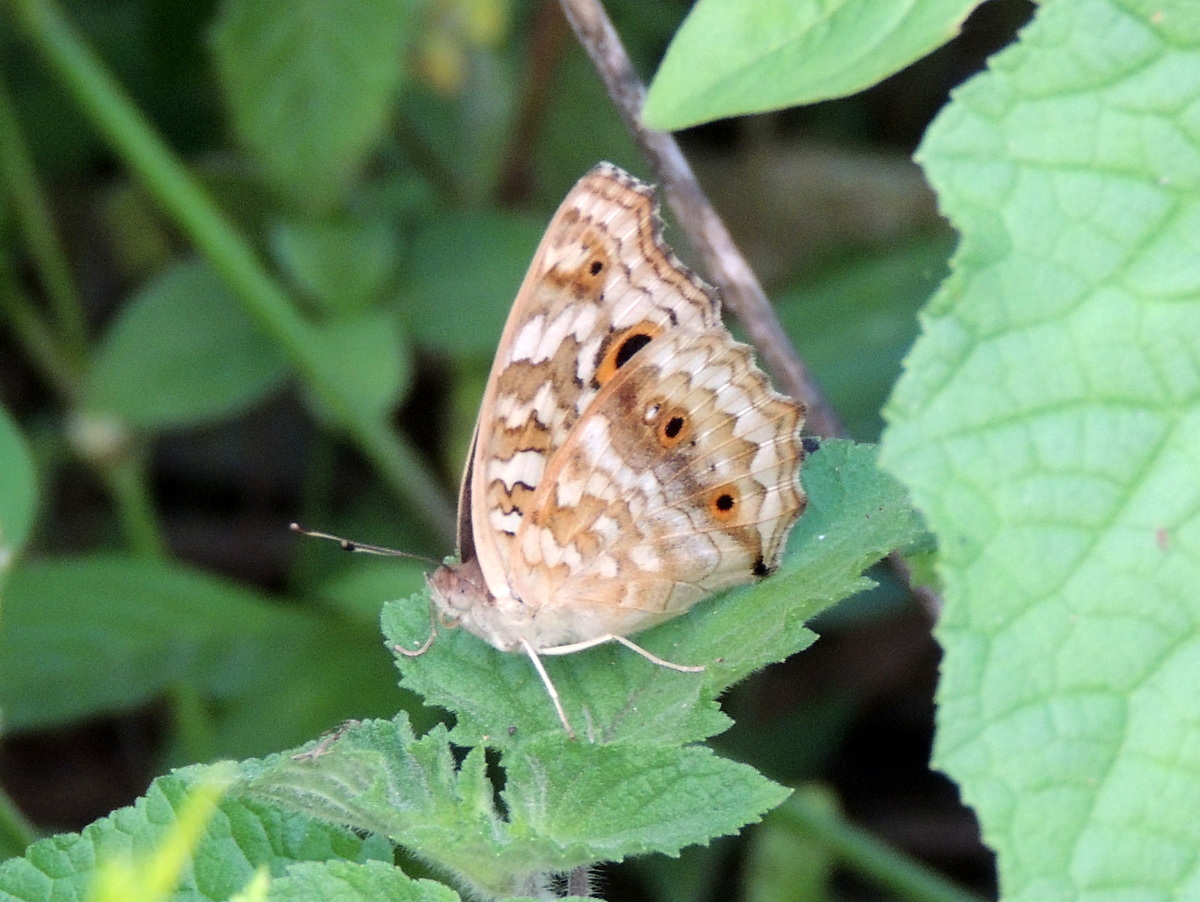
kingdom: Animalia
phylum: Arthropoda
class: Insecta
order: Lepidoptera
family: Nymphalidae
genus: Junonia
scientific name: Junonia lemonias
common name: Lemon pansy
